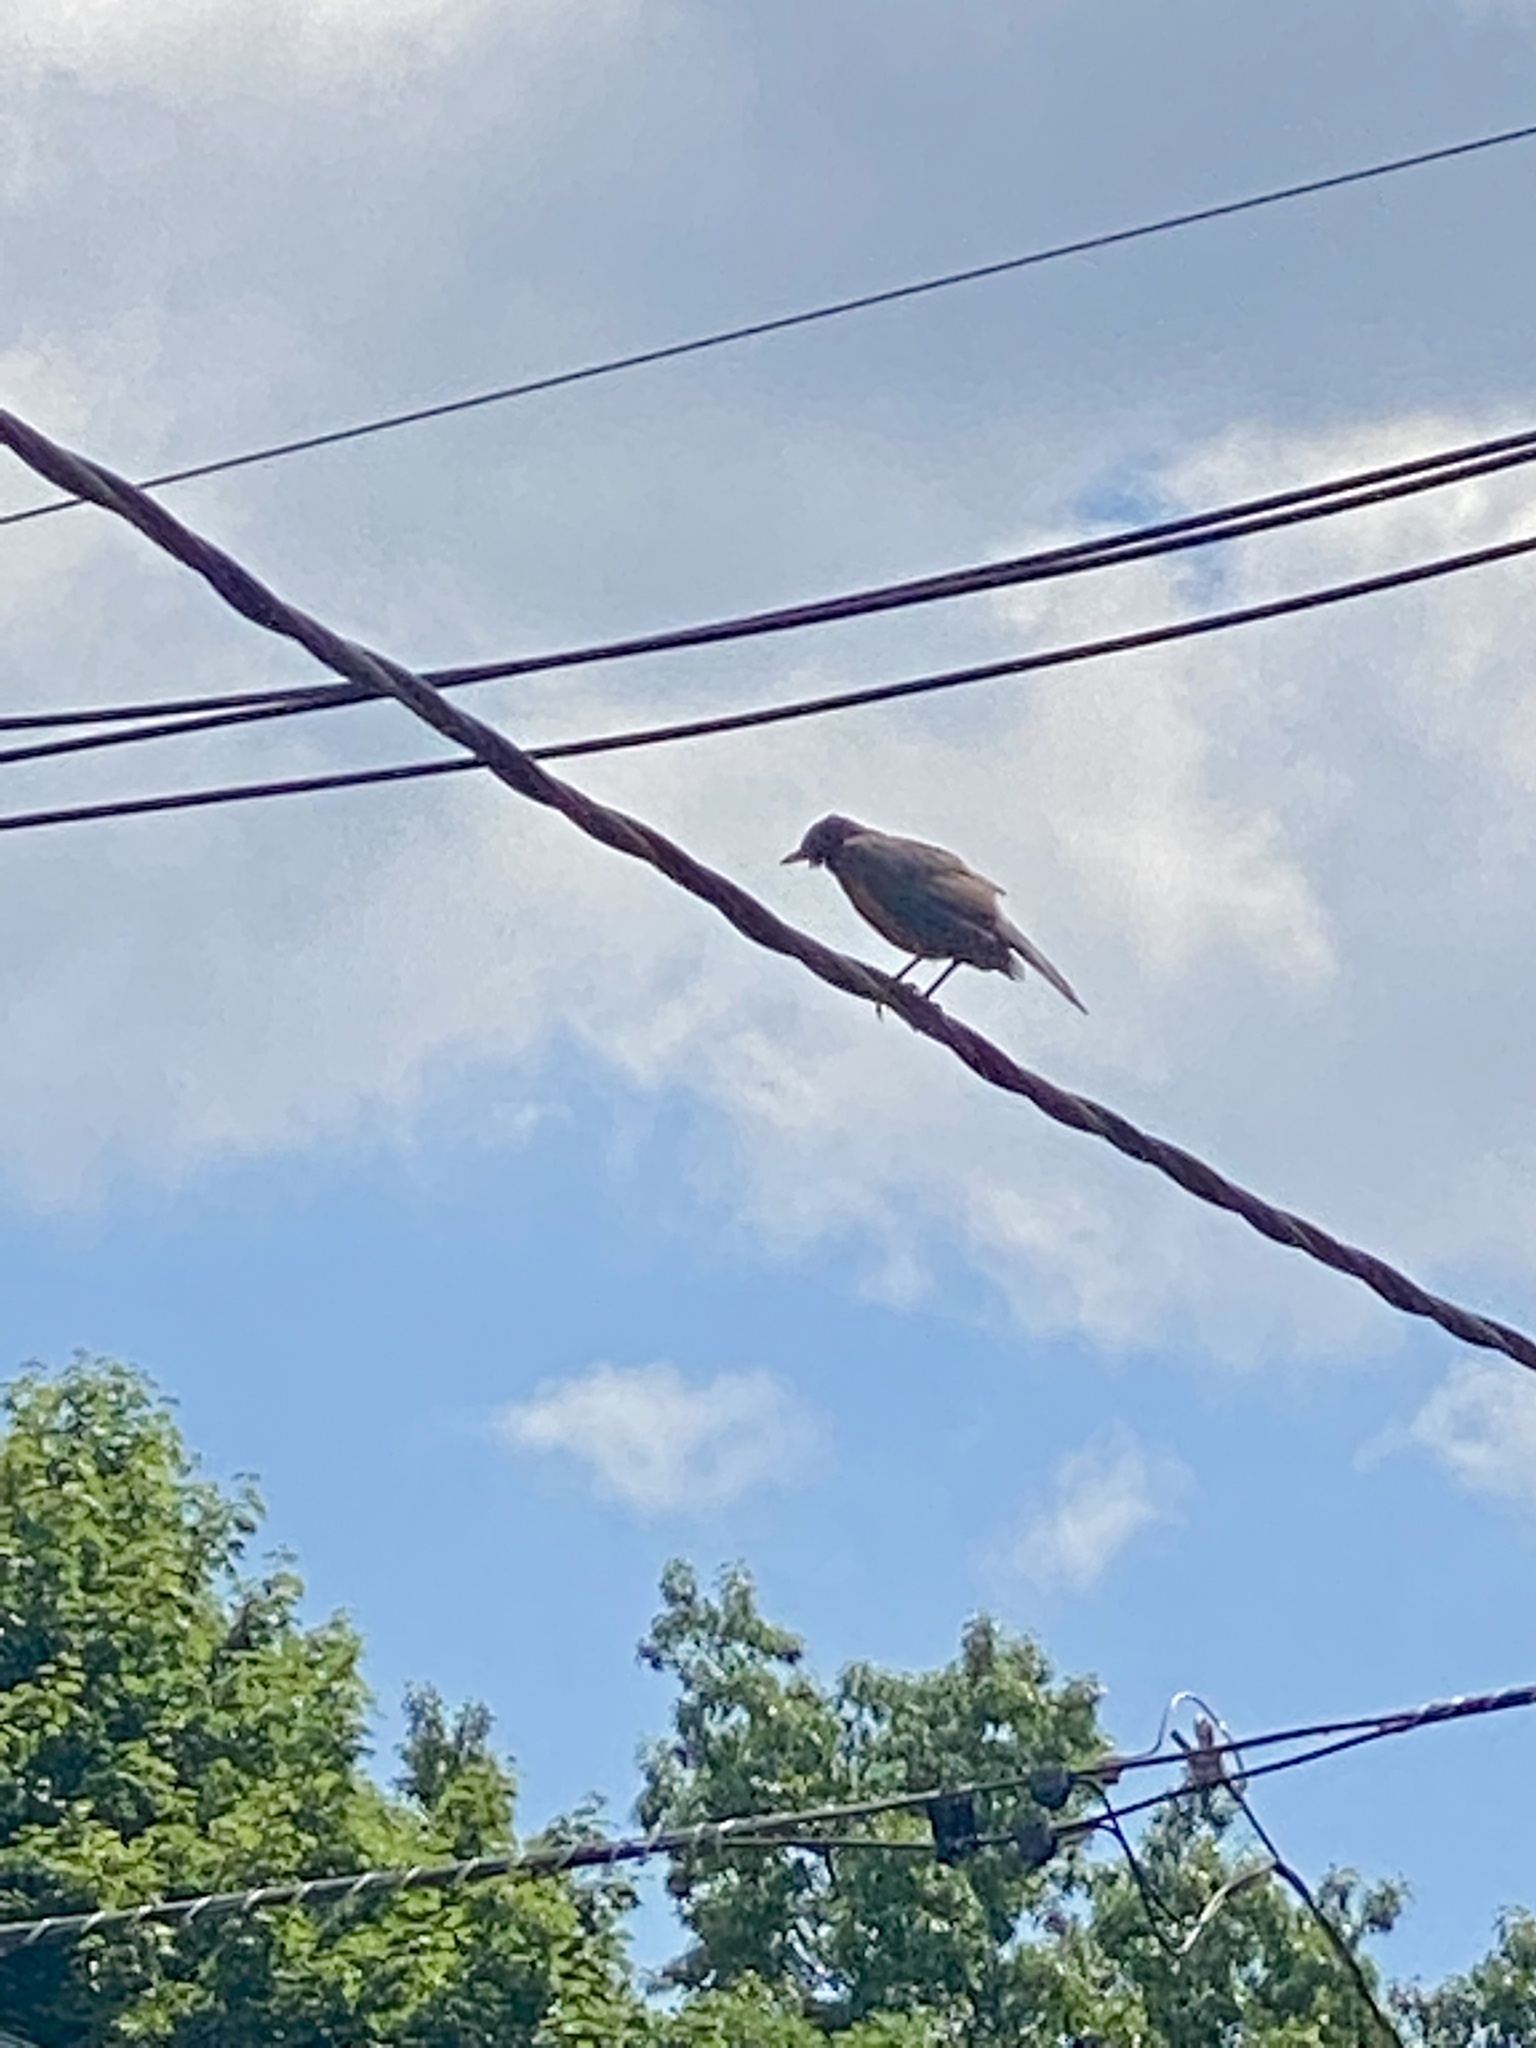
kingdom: Animalia
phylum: Chordata
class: Aves
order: Passeriformes
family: Turdidae
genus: Turdus
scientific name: Turdus migratorius
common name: American robin
